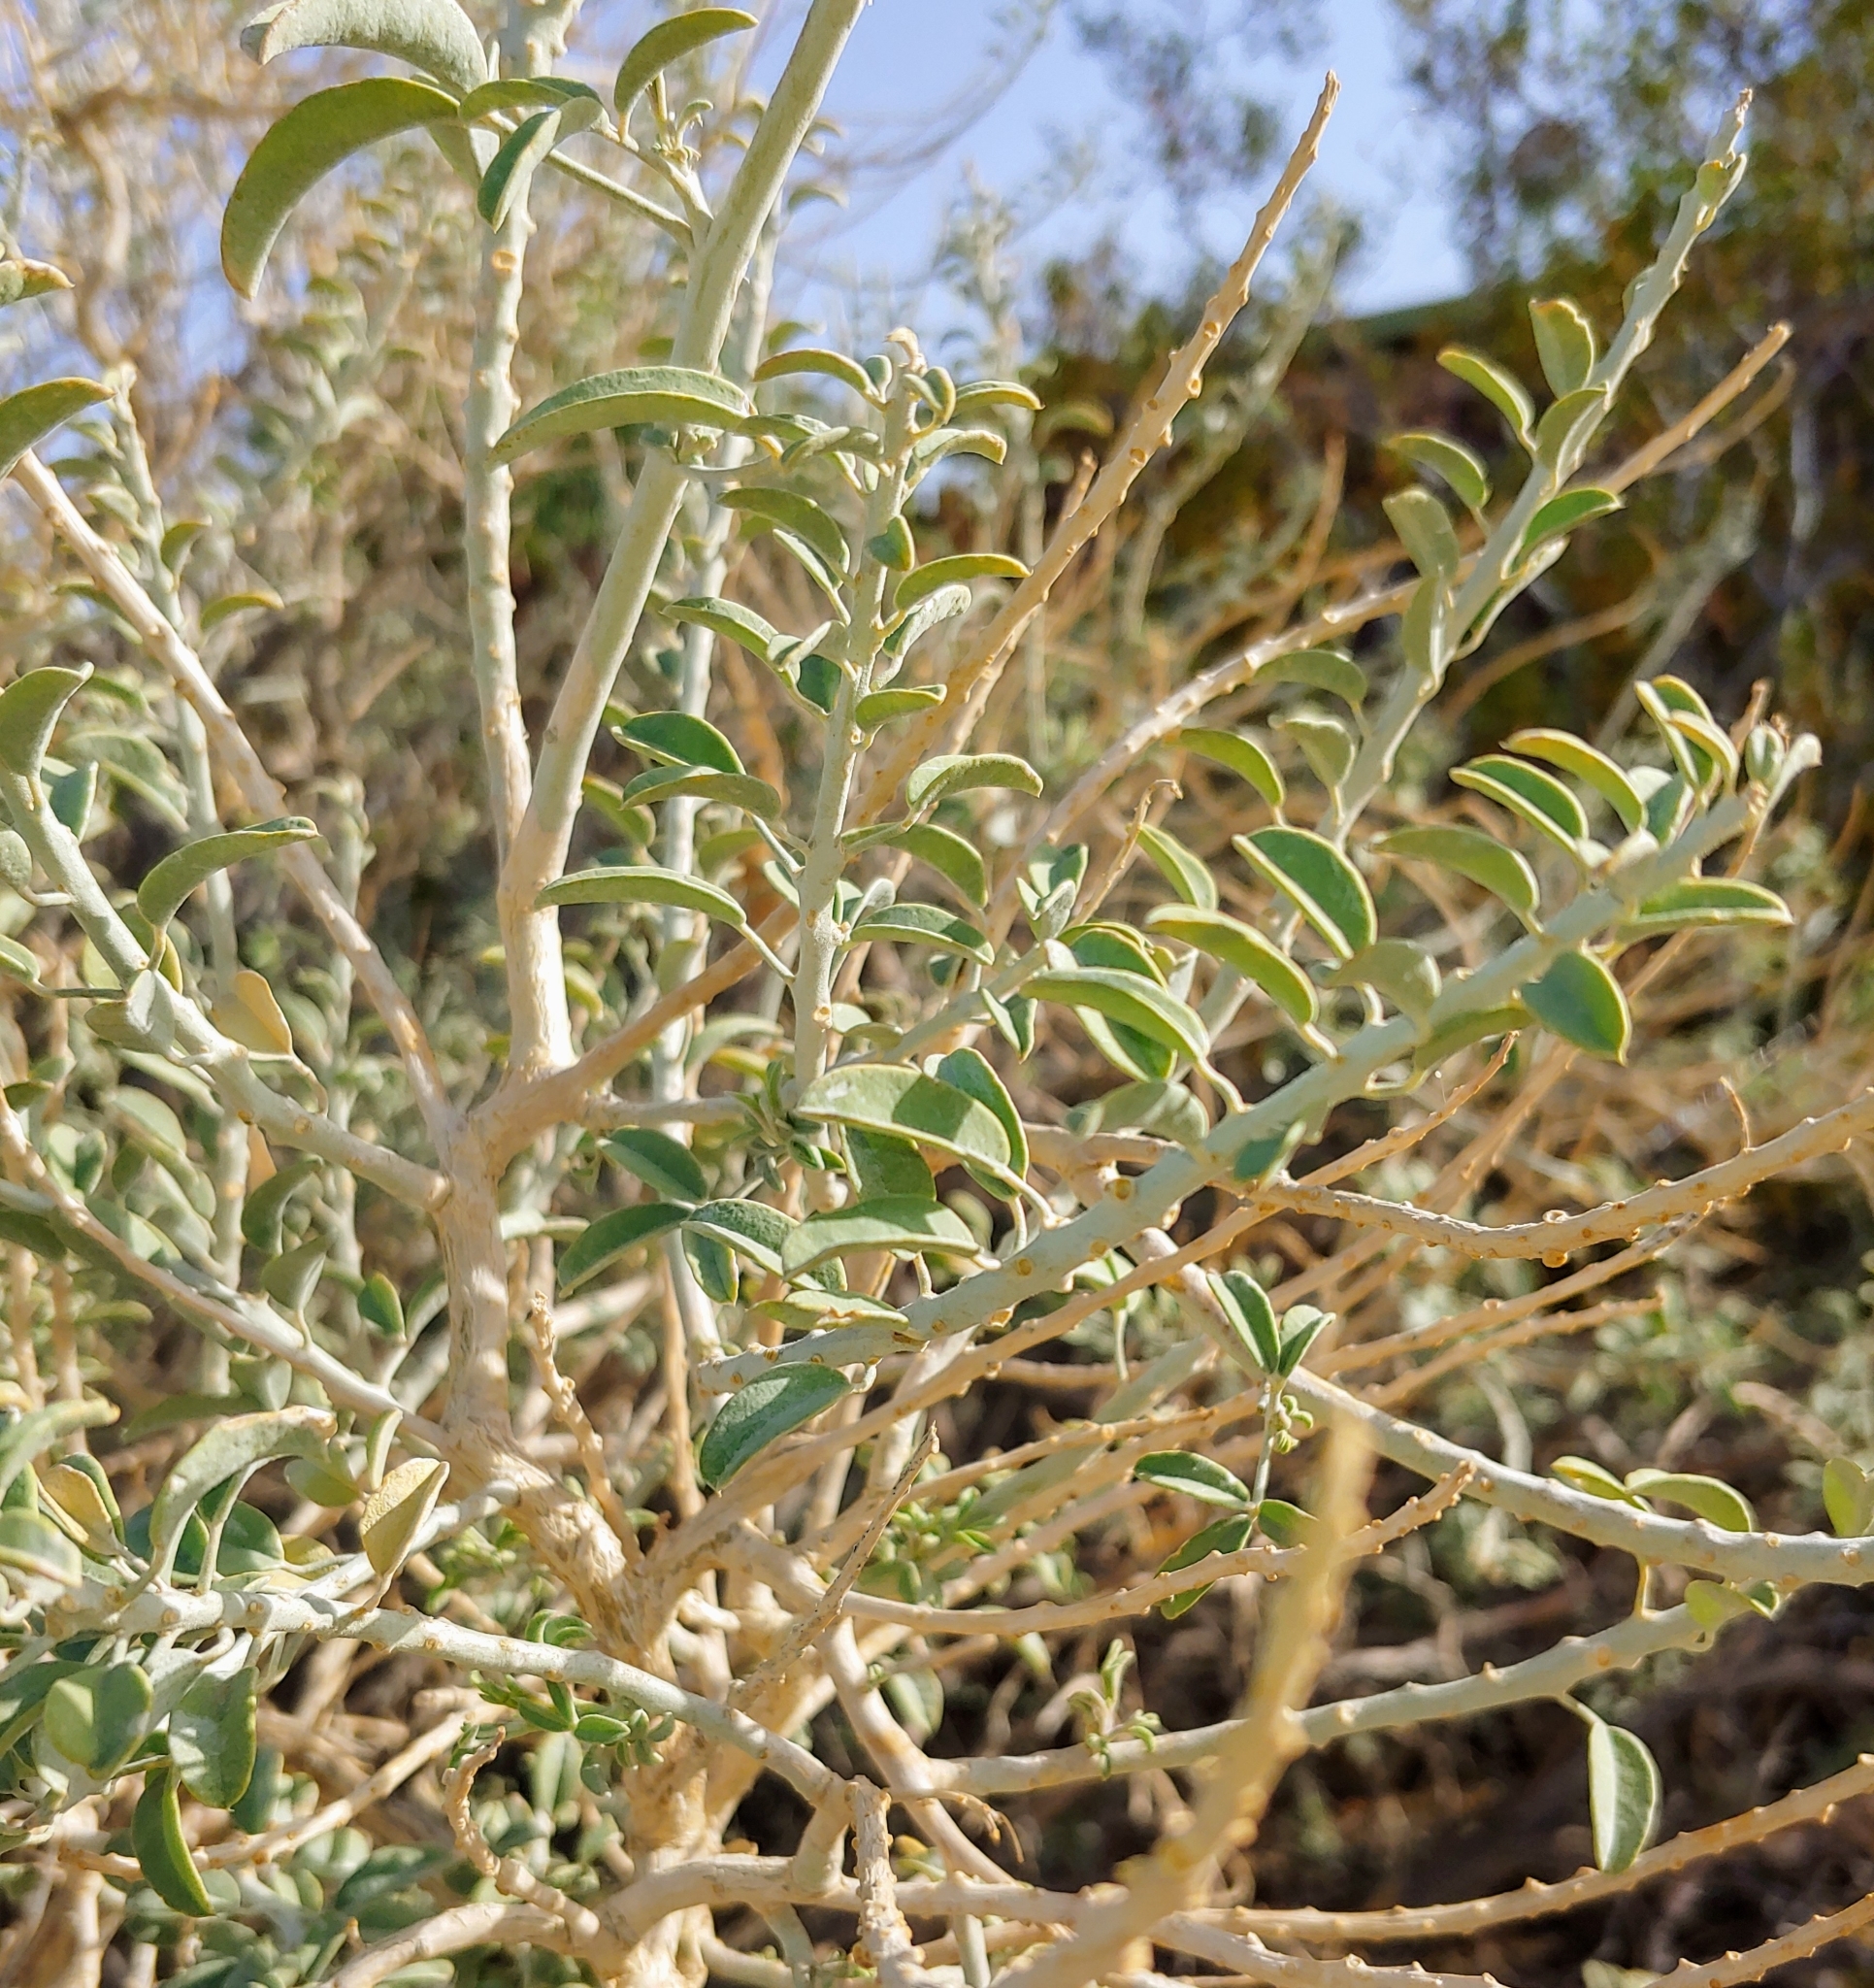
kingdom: Plantae
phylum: Tracheophyta
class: Magnoliopsida
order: Brassicales
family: Cleomaceae
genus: Cleomella
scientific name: Cleomella arborea
